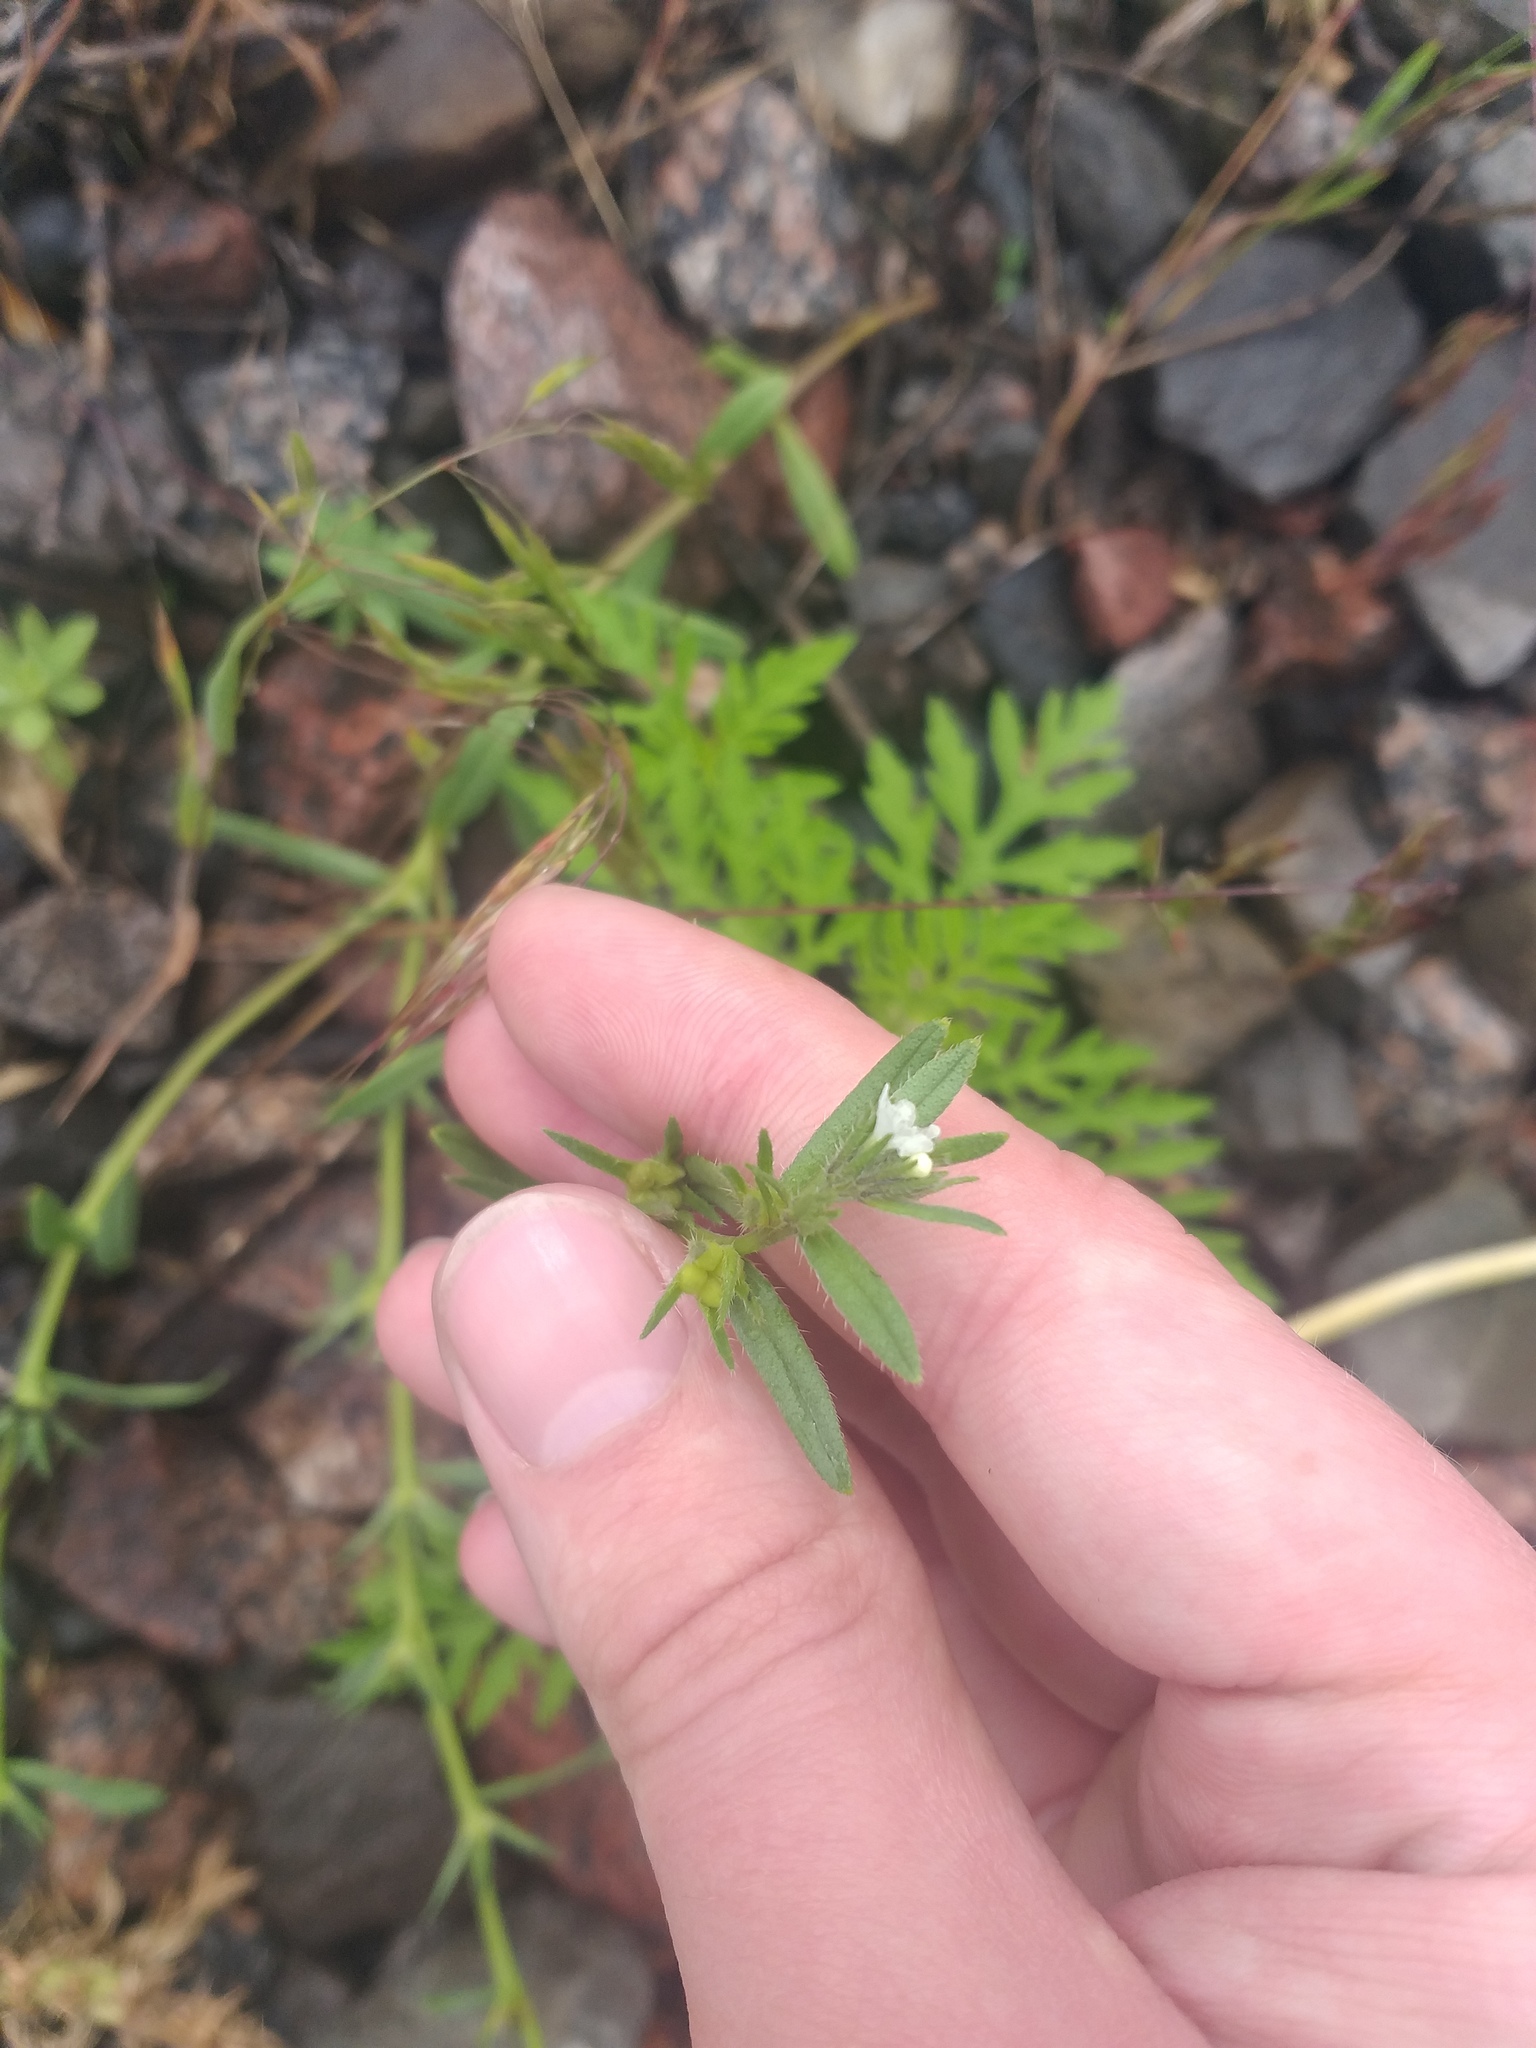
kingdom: Plantae
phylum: Tracheophyta
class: Magnoliopsida
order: Boraginales
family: Boraginaceae
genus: Buglossoides
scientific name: Buglossoides arvensis
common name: Corn gromwell
